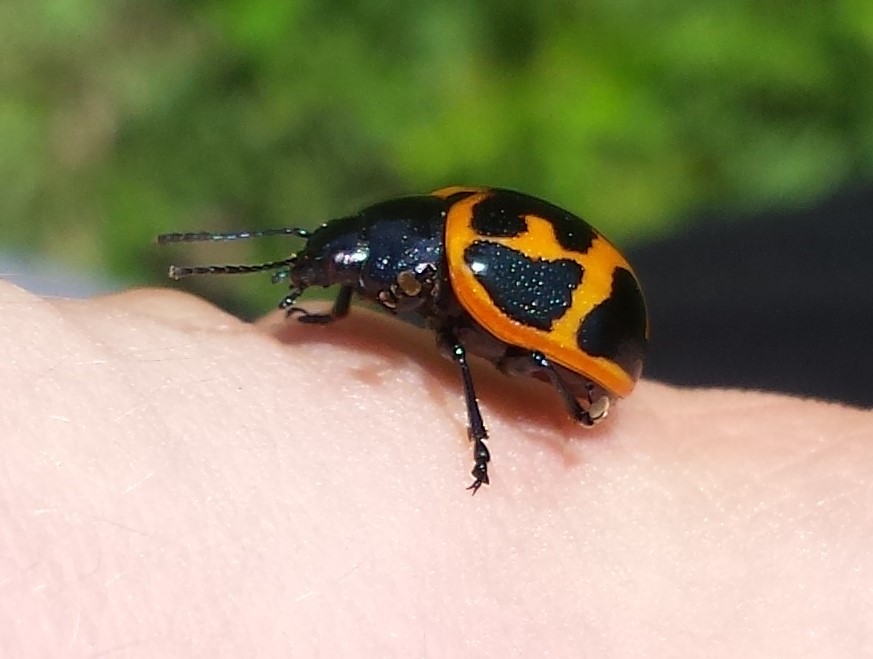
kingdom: Animalia
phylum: Arthropoda
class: Insecta
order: Coleoptera
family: Chrysomelidae
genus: Labidomera
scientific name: Labidomera clivicollis
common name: Swamp milkweed leaf beetle
